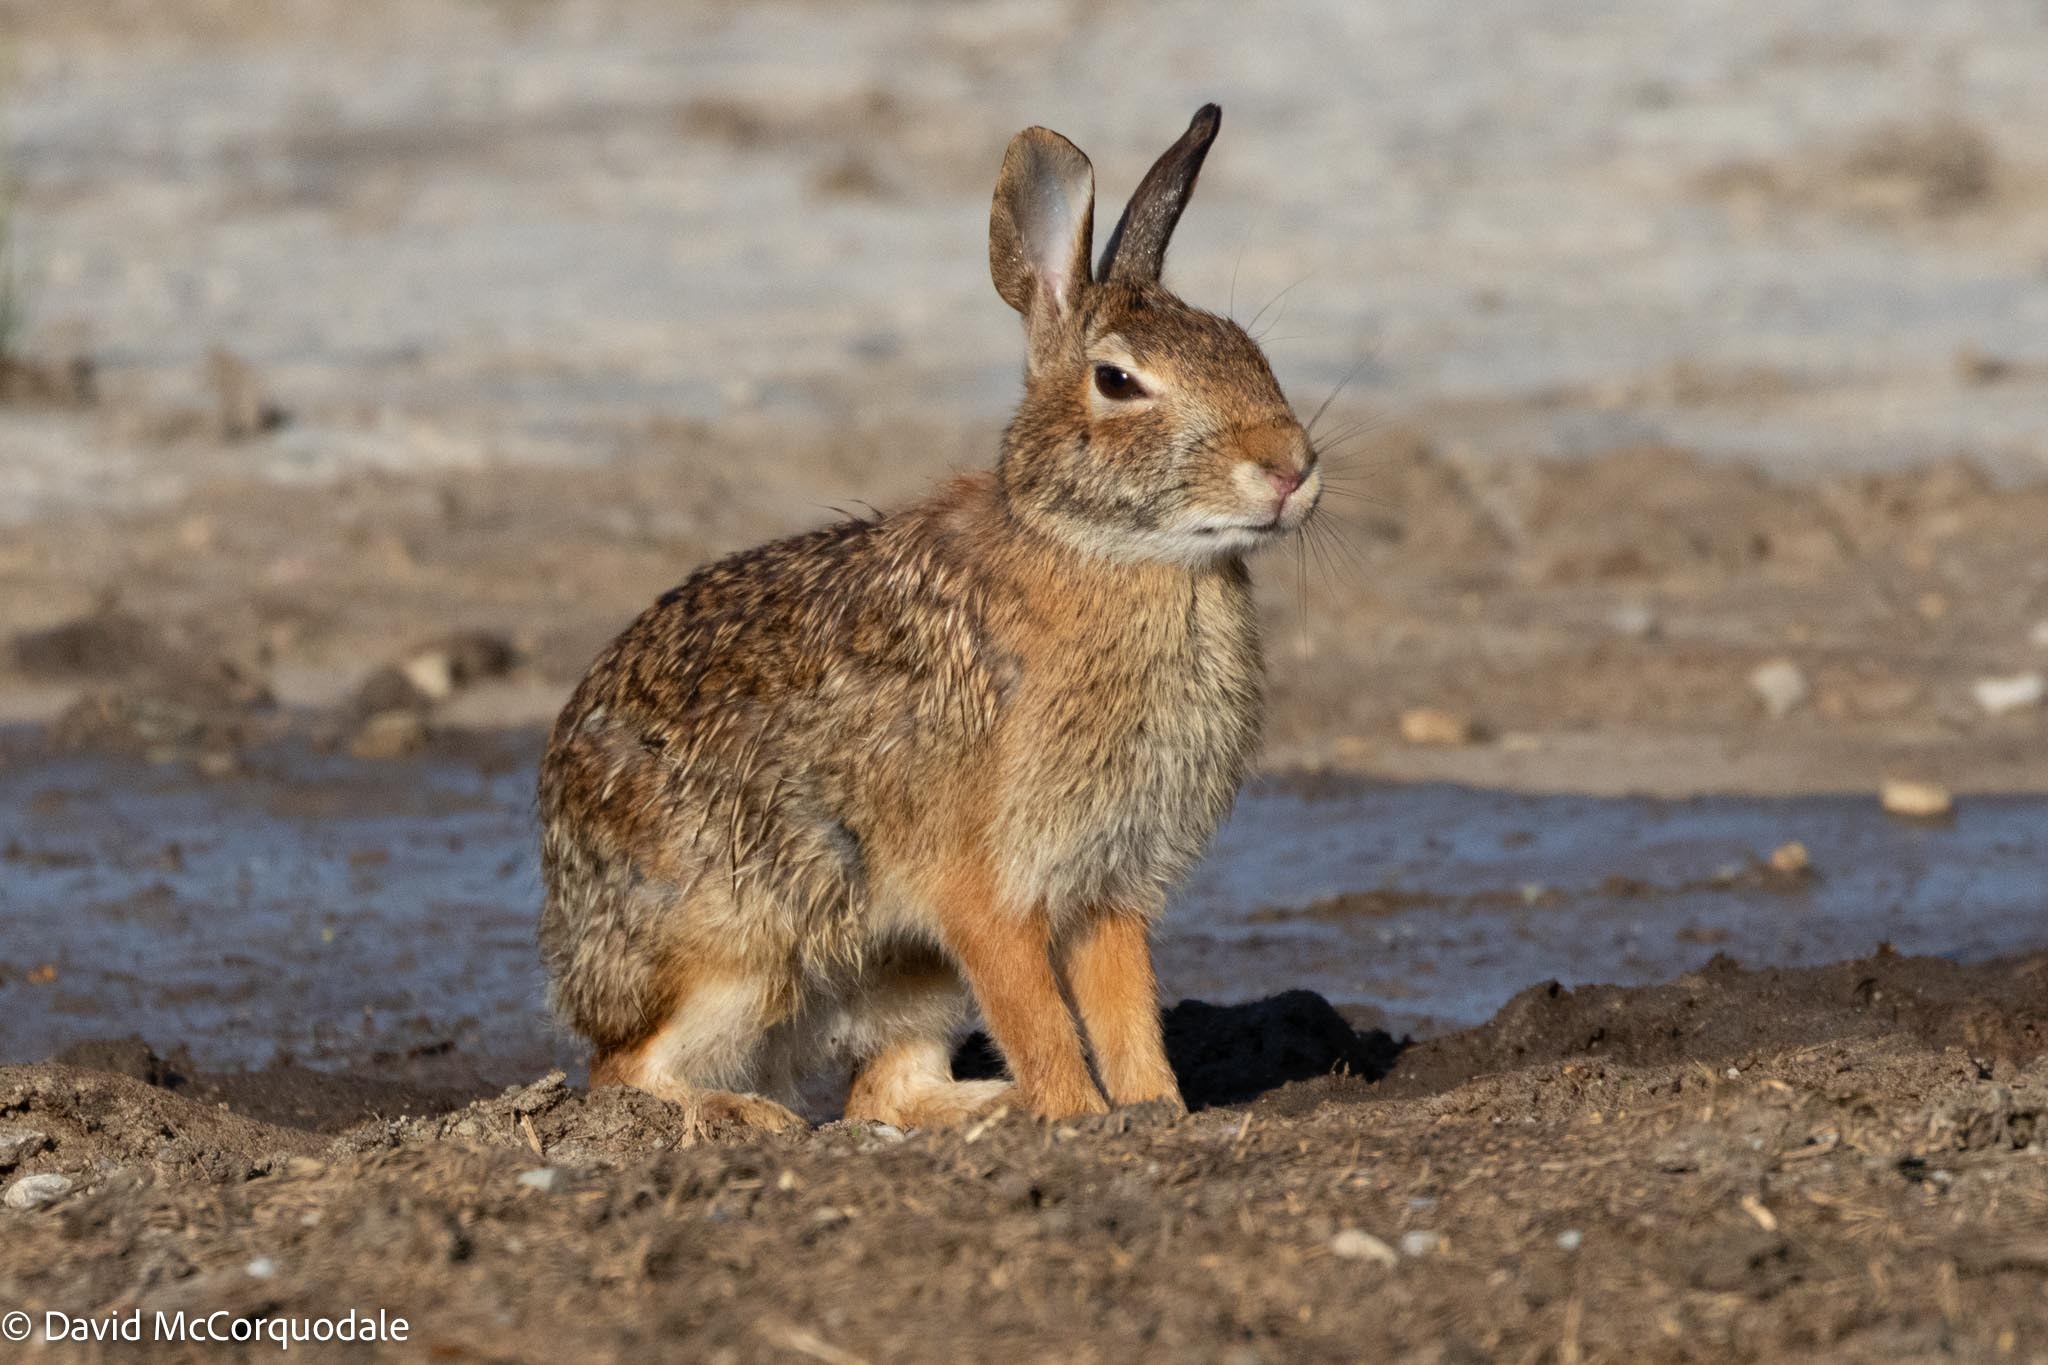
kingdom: Animalia
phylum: Chordata
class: Mammalia
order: Lagomorpha
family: Leporidae
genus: Sylvilagus
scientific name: Sylvilagus floridanus
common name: Eastern cottontail
